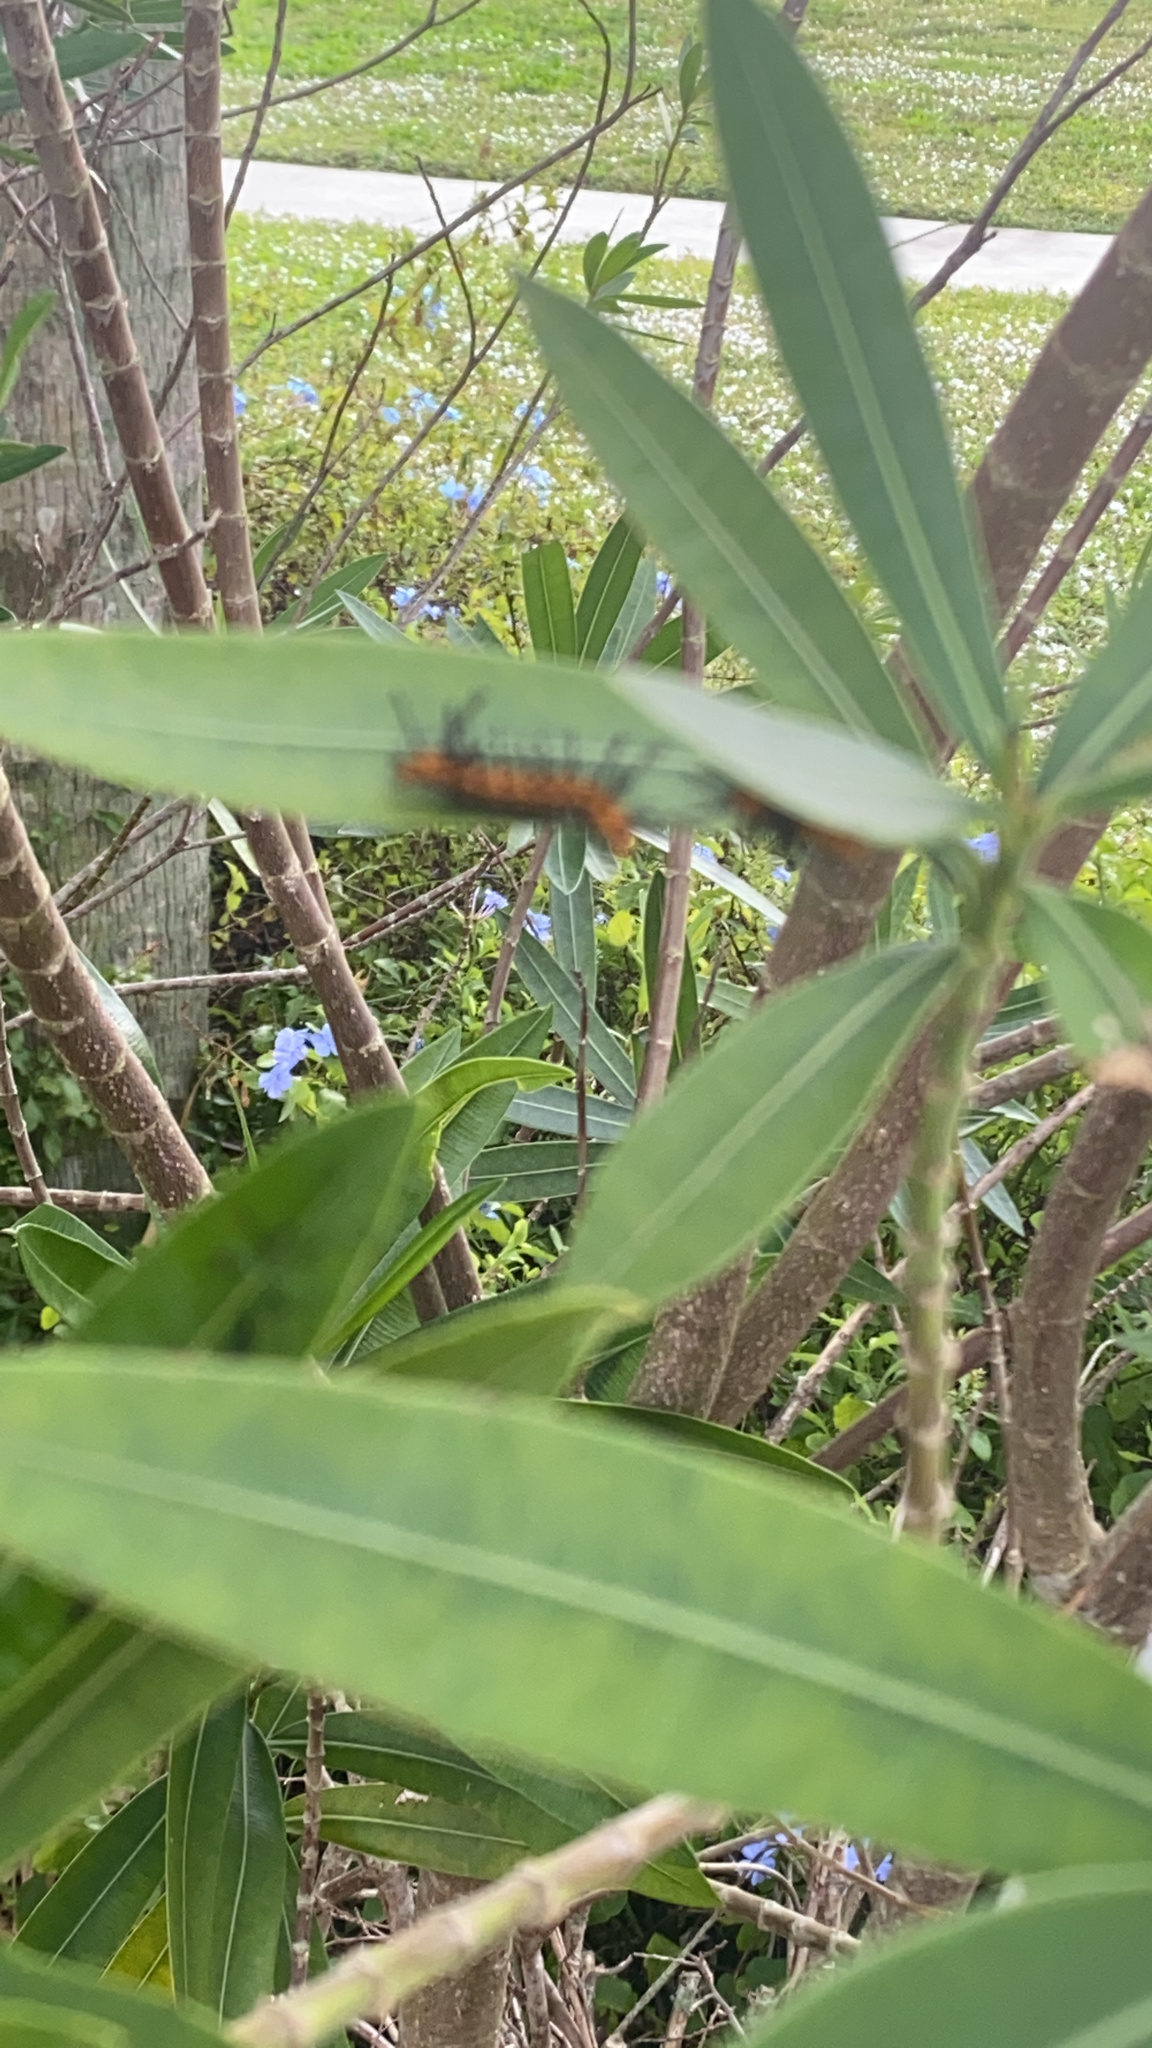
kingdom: Animalia
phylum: Arthropoda
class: Insecta
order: Lepidoptera
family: Erebidae
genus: Syntomeida
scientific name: Syntomeida epilais
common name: Polka-dot wasp moth
